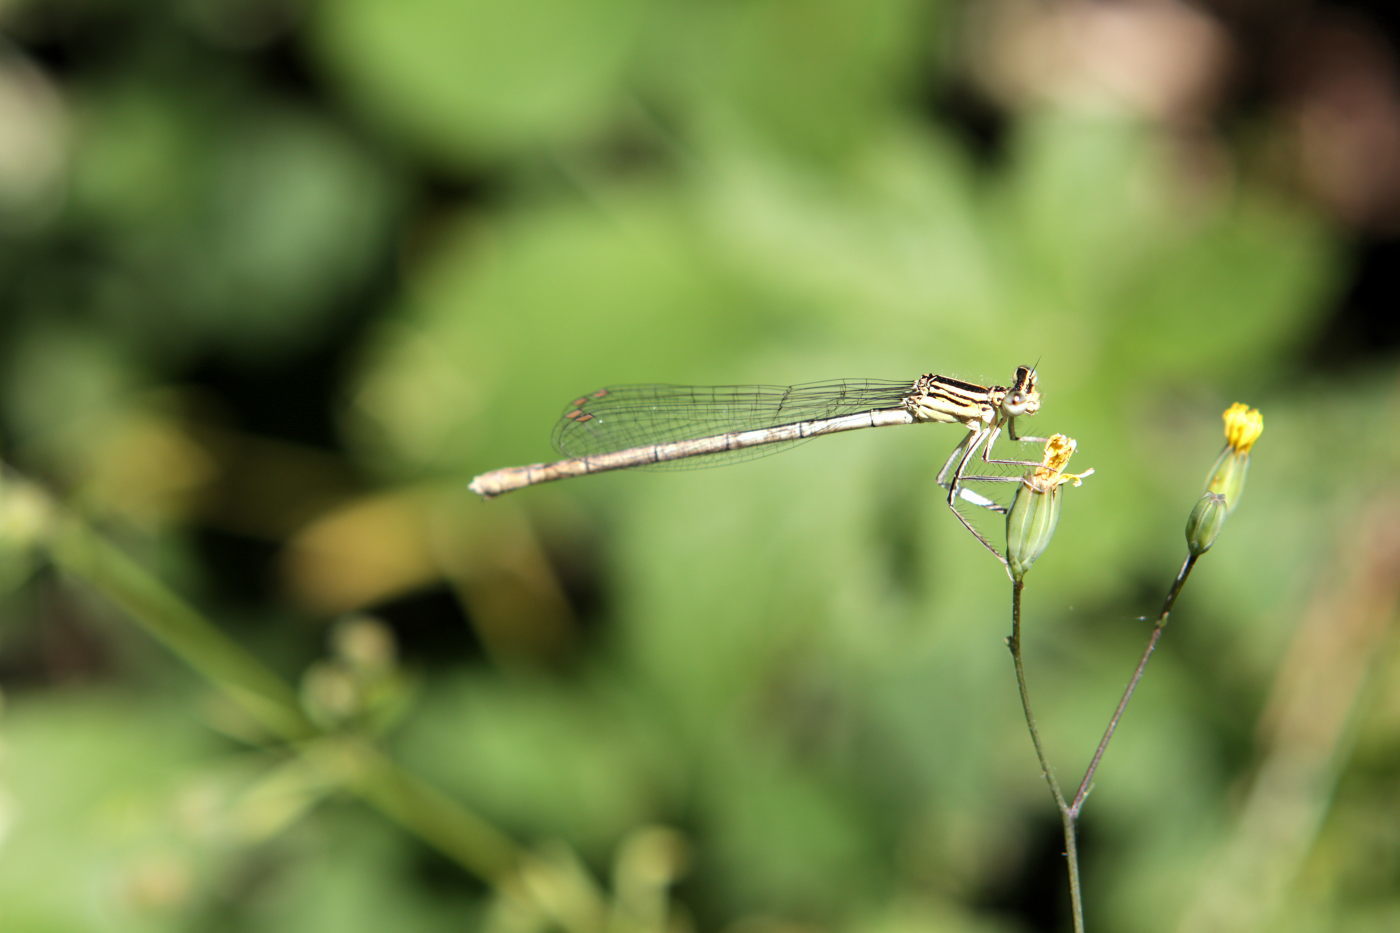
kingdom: Animalia
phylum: Arthropoda
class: Insecta
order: Odonata
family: Platycnemididae
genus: Platycnemis
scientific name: Platycnemis pennipes
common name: White-legged damselfly
